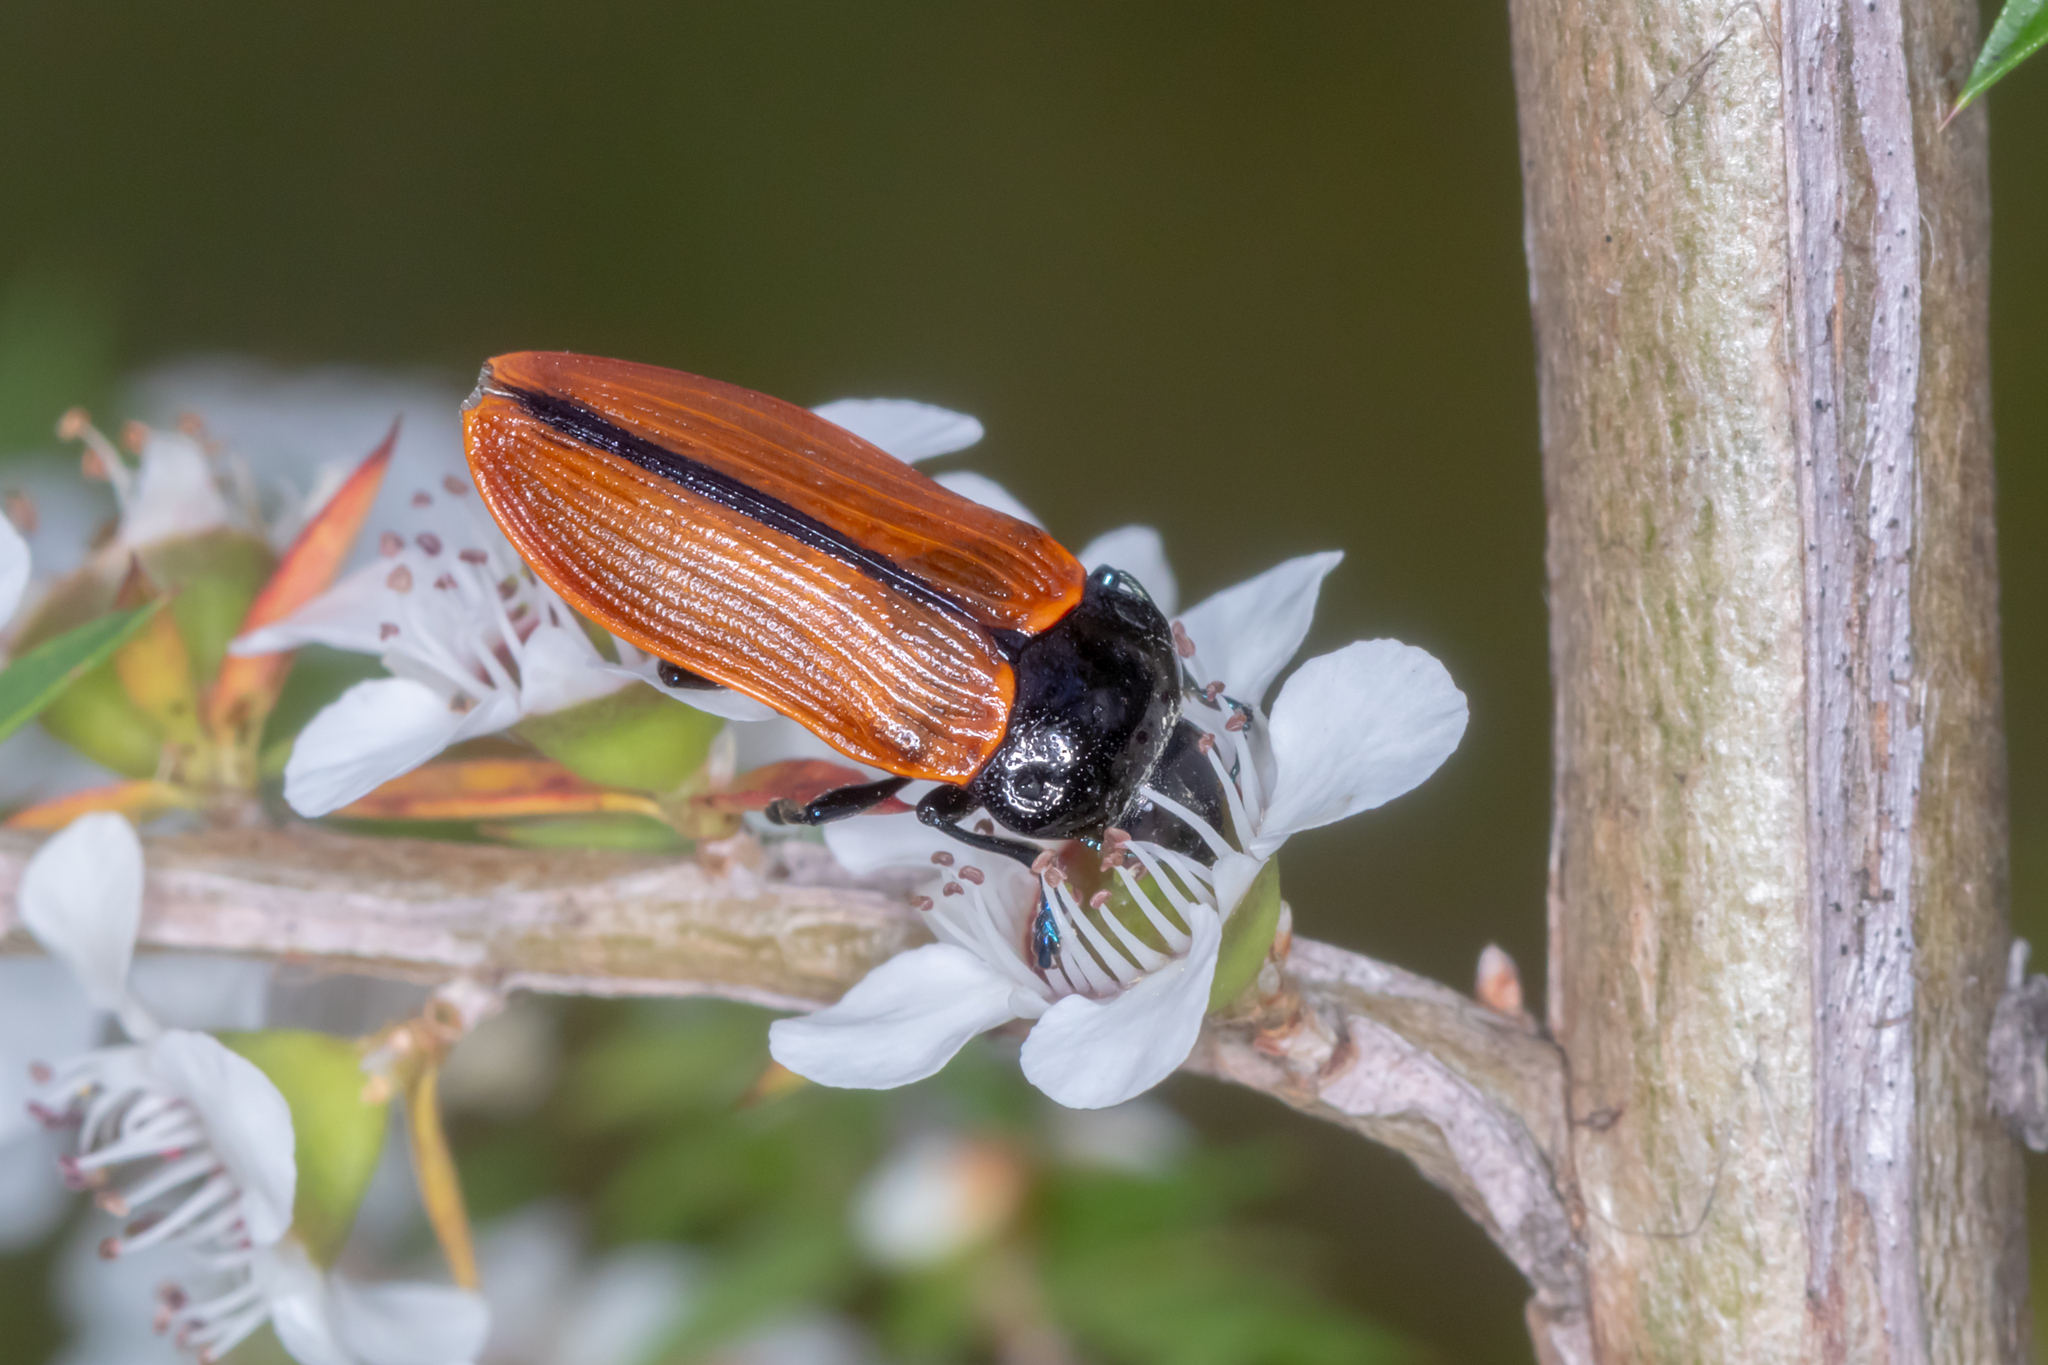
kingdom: Animalia
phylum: Arthropoda
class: Insecta
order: Coleoptera
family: Buprestidae
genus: Castiarina
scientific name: Castiarina rufipennis
